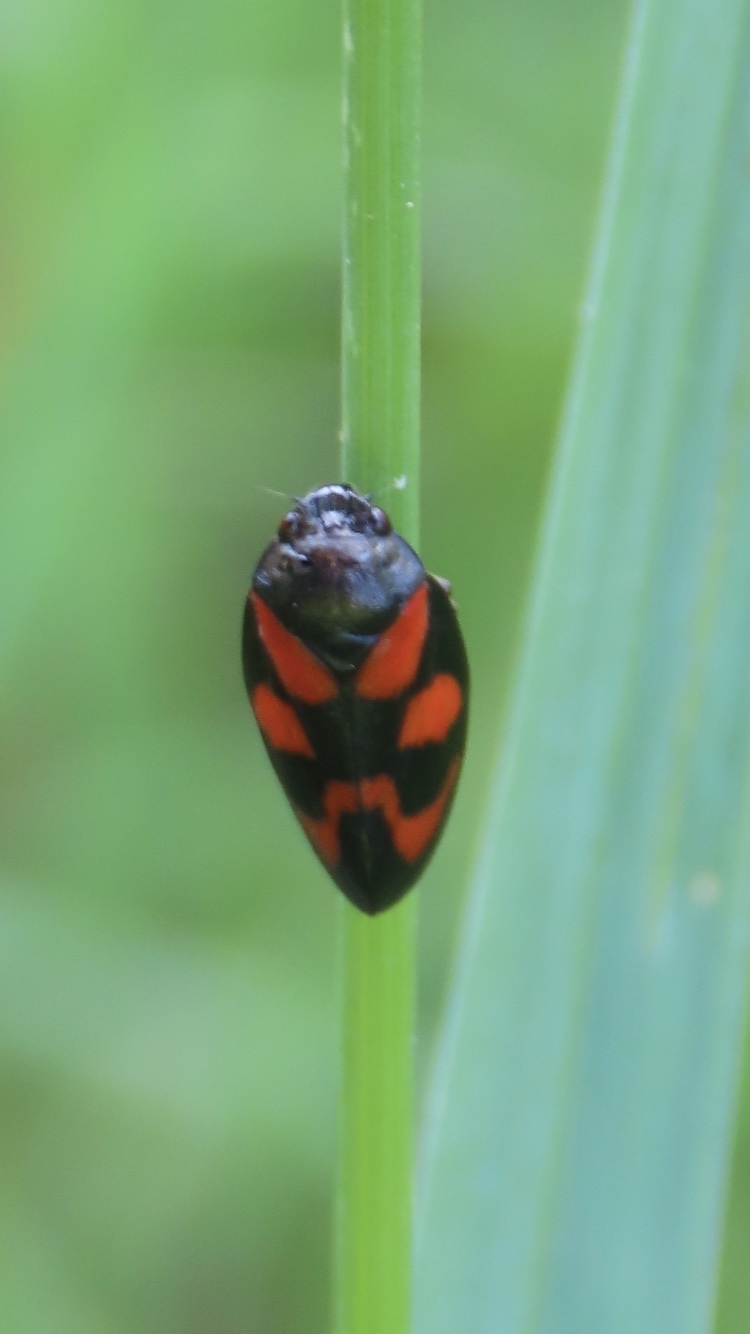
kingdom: Animalia
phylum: Arthropoda
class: Insecta
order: Hemiptera
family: Cercopidae
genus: Cercopis
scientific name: Cercopis vulnerata
